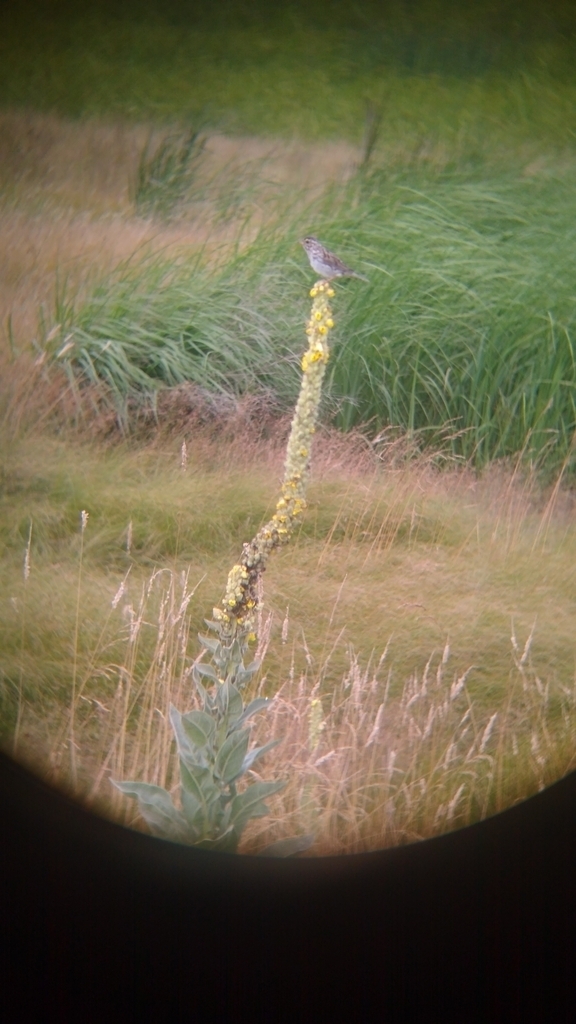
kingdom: Plantae
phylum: Tracheophyta
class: Magnoliopsida
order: Lamiales
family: Scrophulariaceae
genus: Verbascum
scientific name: Verbascum thapsus
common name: Common mullein
